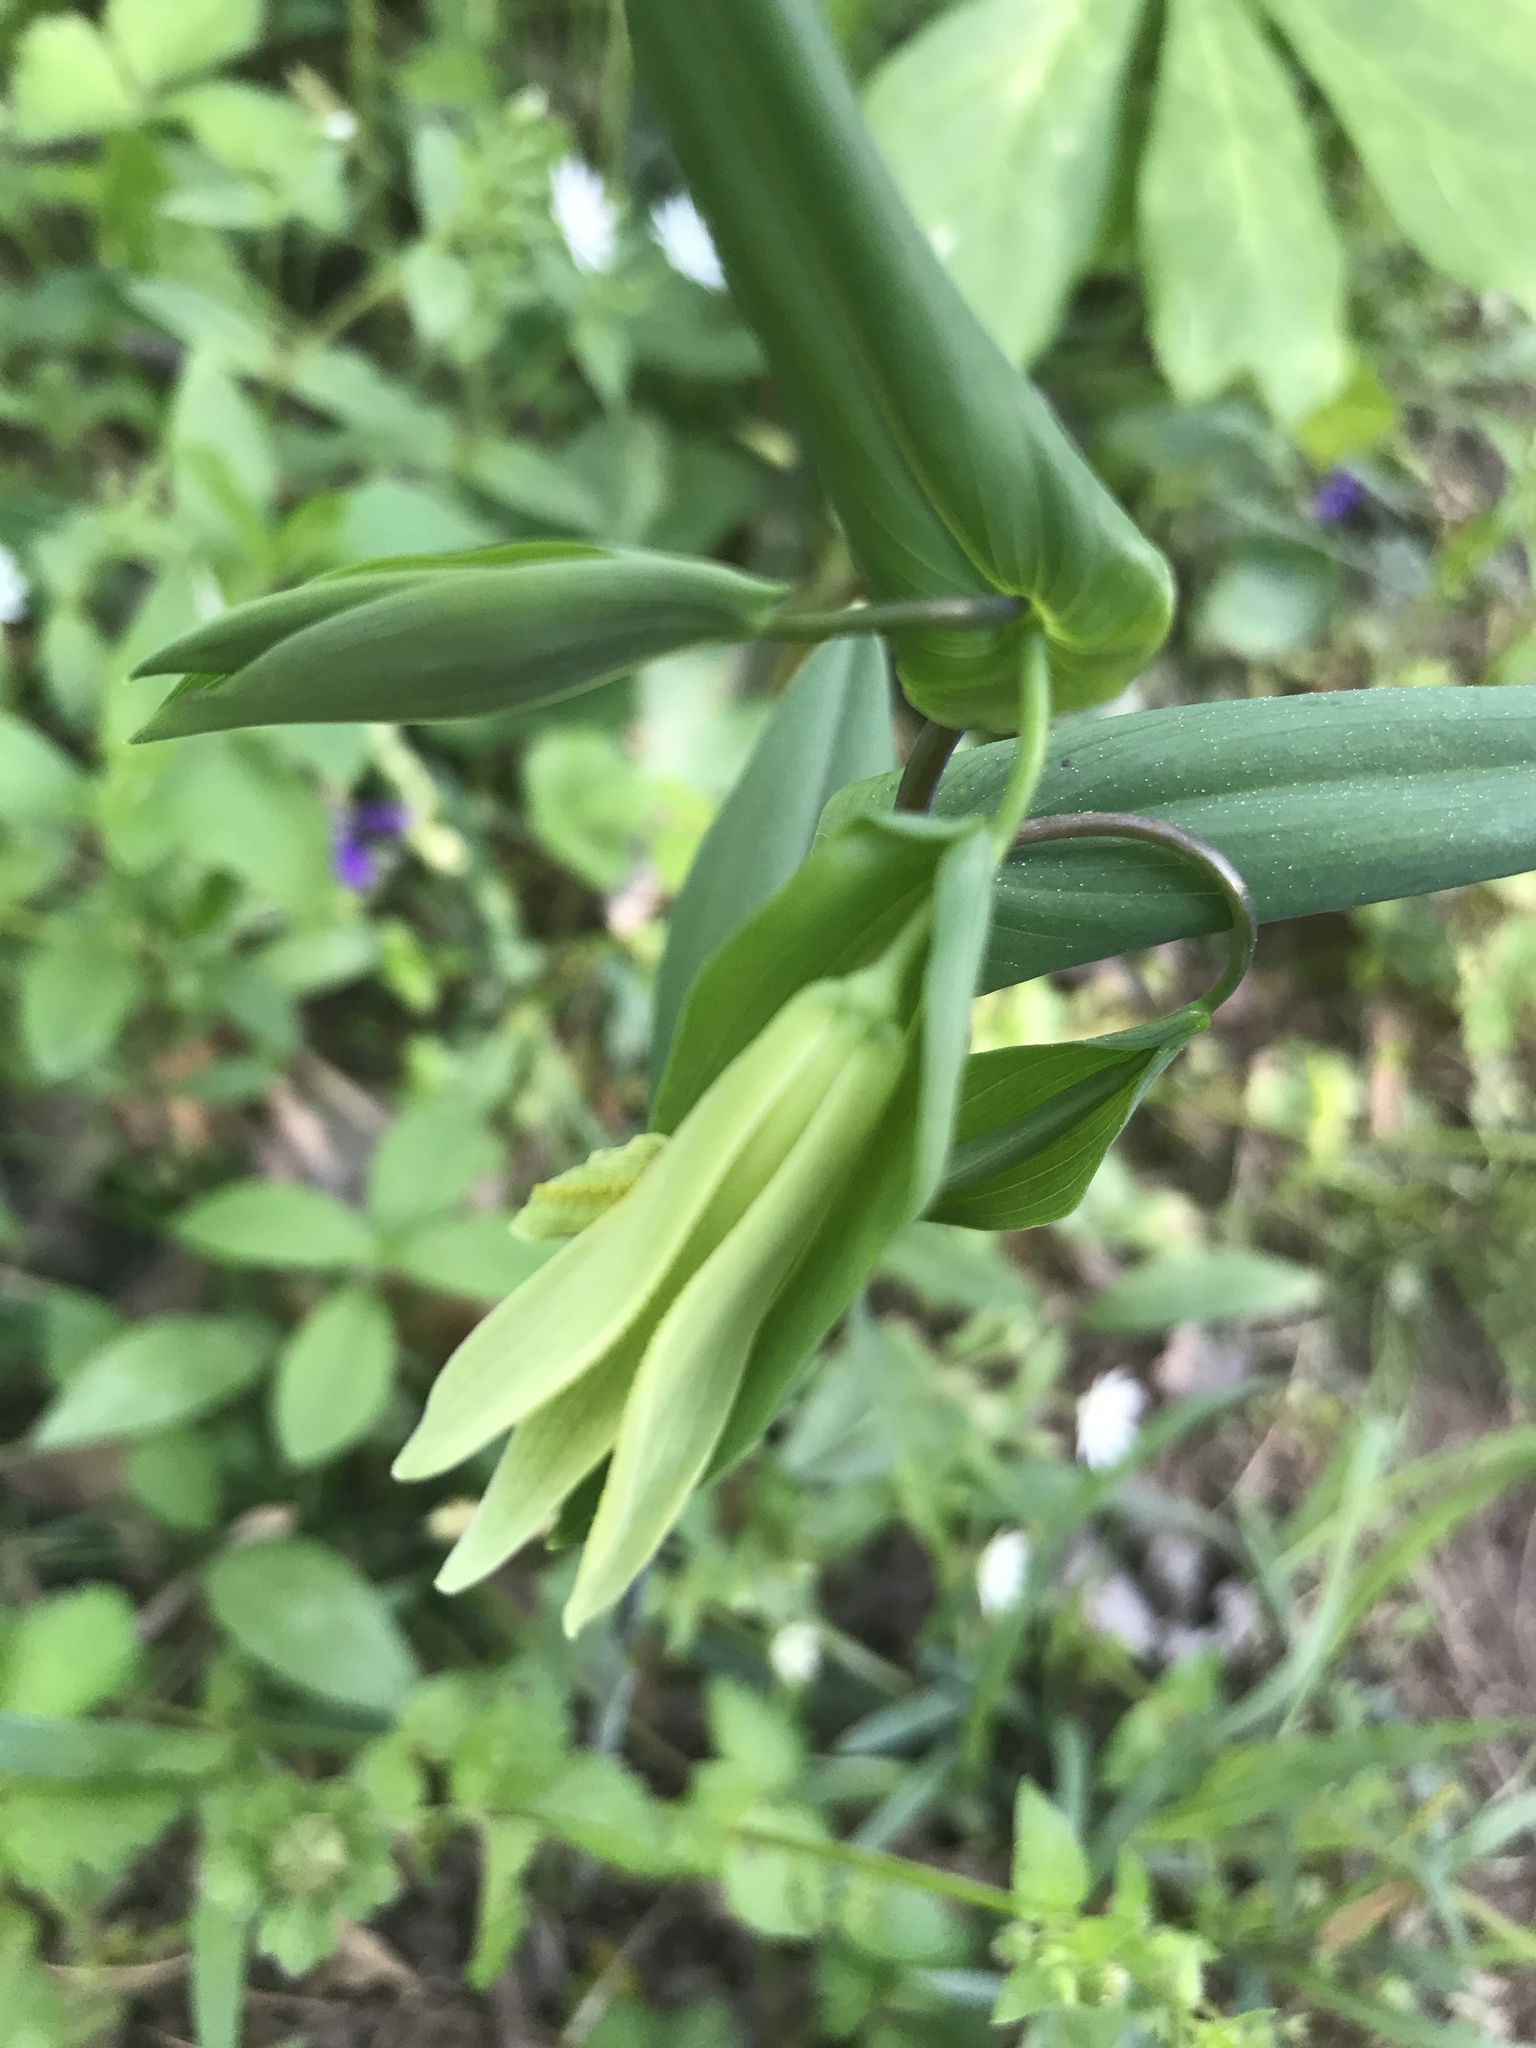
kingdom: Plantae
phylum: Tracheophyta
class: Liliopsida
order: Liliales
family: Colchicaceae
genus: Uvularia
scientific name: Uvularia perfoliata
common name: Perfoliate bellwort
